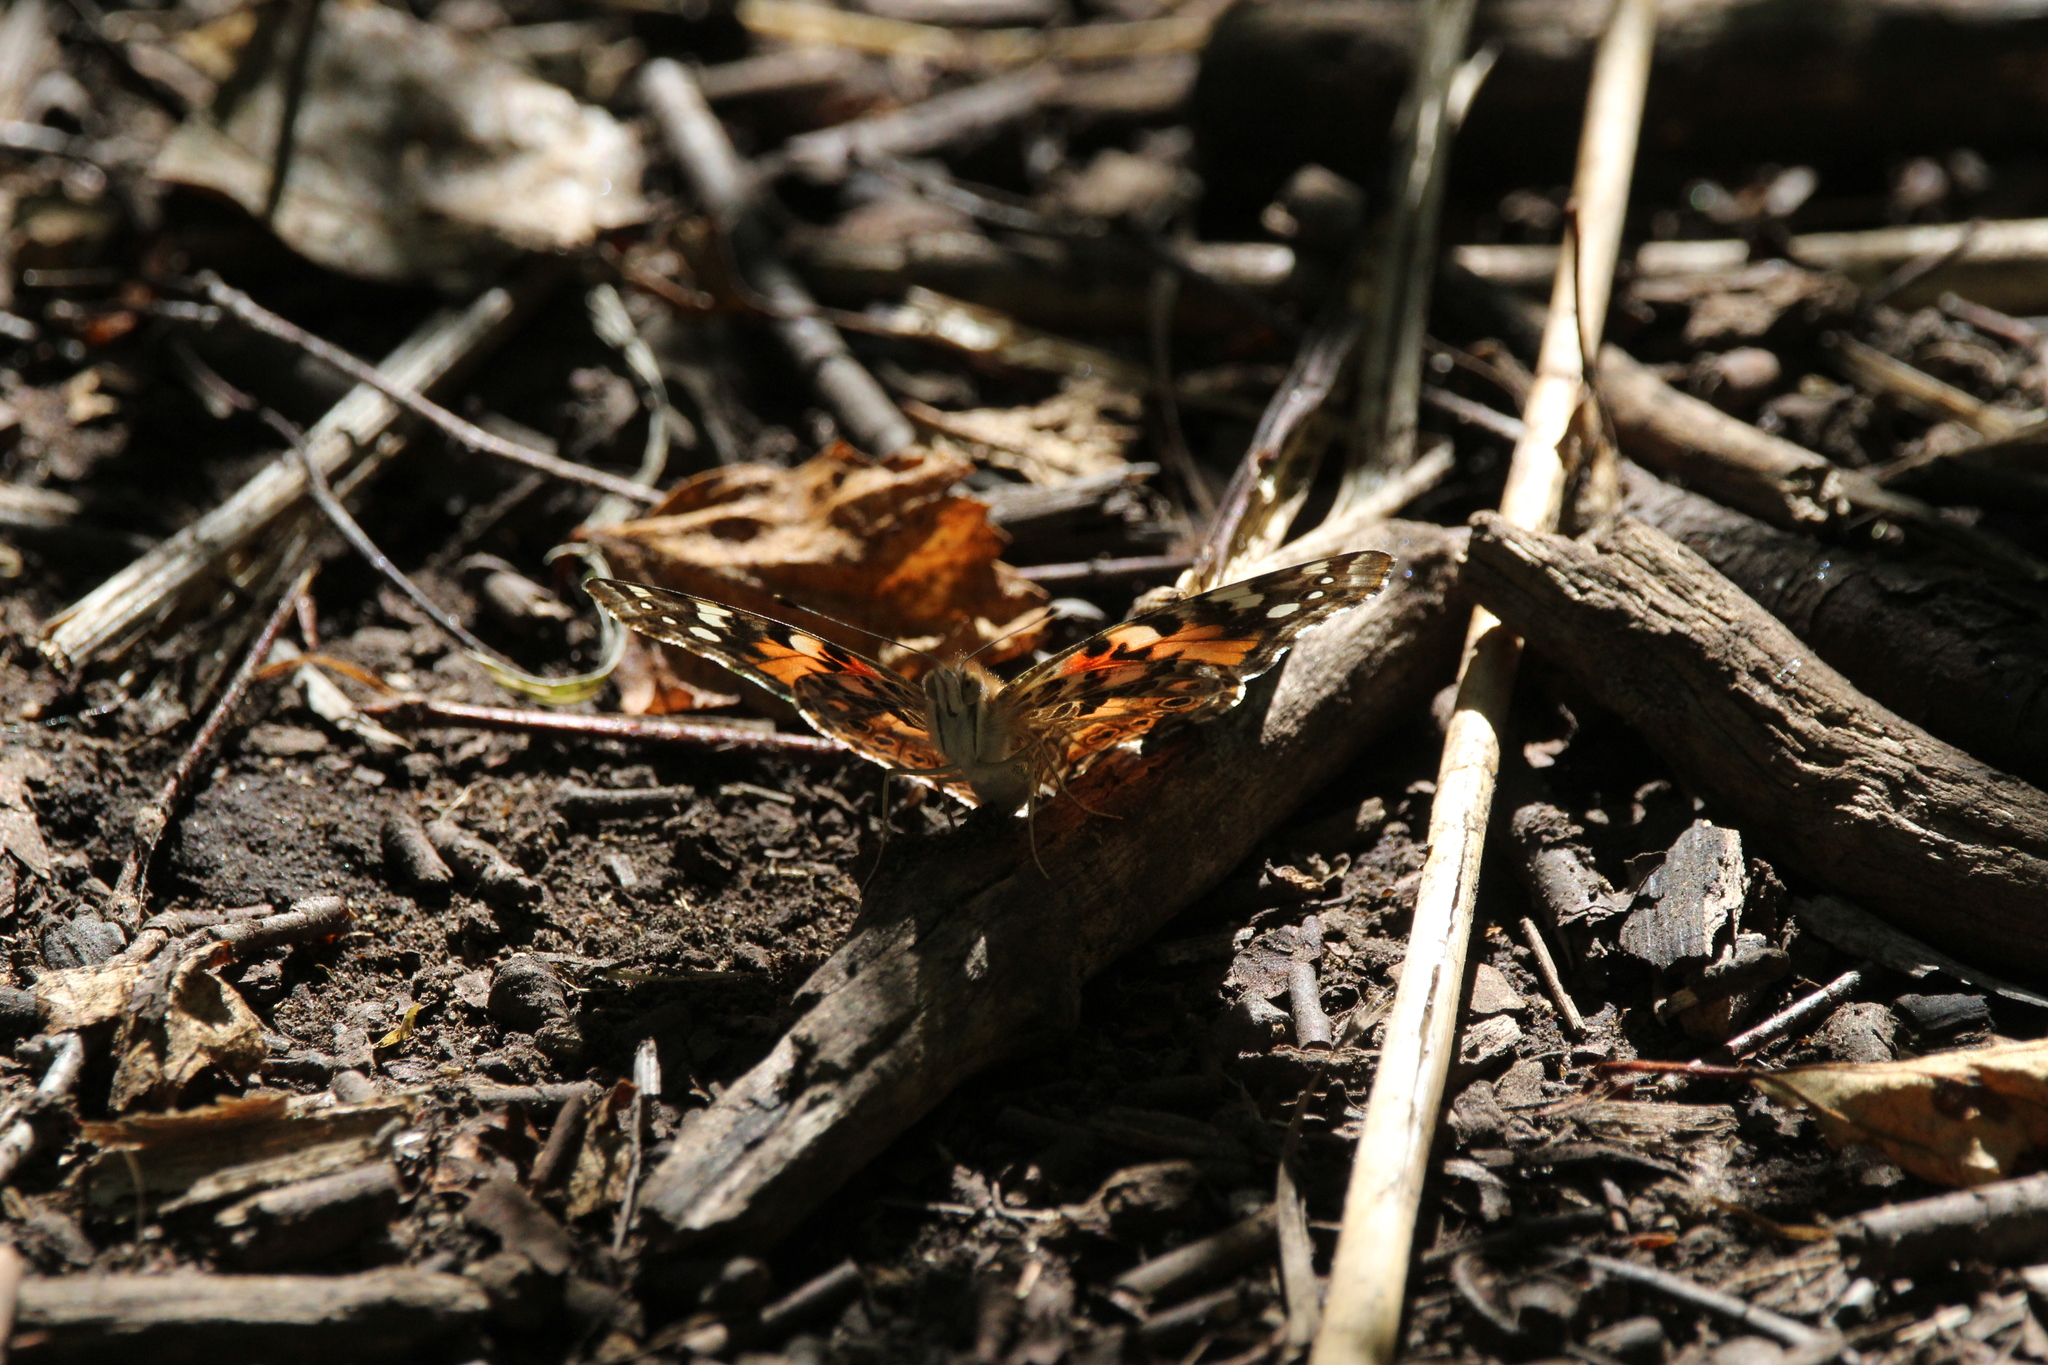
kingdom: Animalia
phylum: Arthropoda
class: Insecta
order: Lepidoptera
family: Nymphalidae
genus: Vanessa
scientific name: Vanessa cardui
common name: Painted lady
